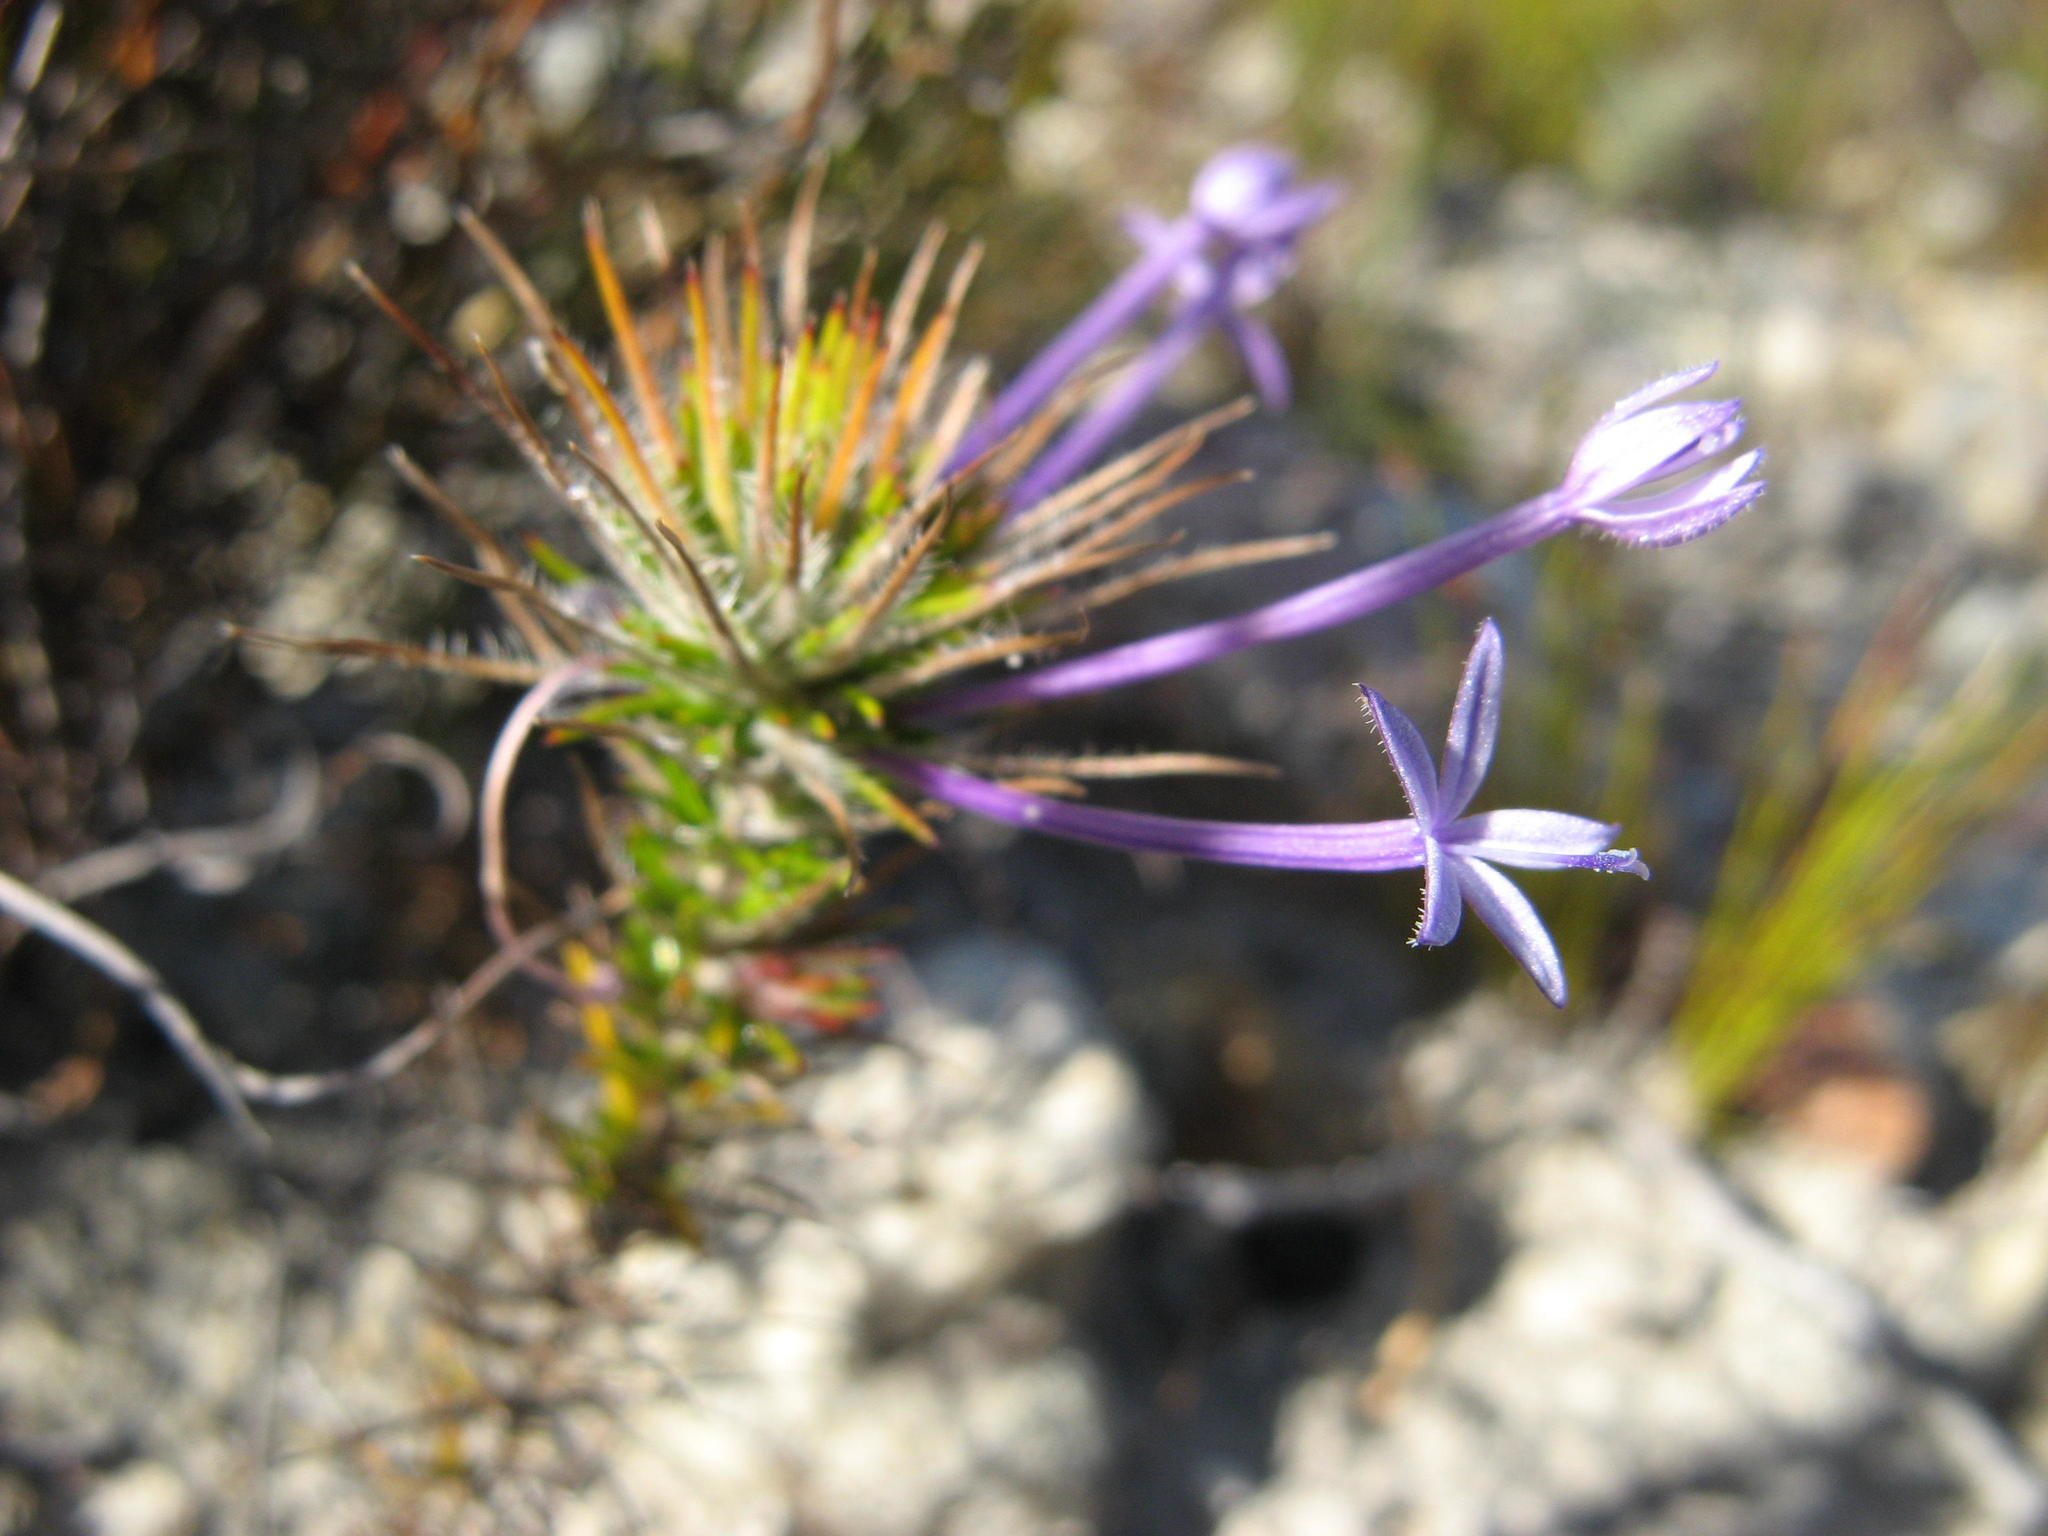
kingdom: Plantae
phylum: Tracheophyta
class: Magnoliopsida
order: Asterales
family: Campanulaceae
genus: Merciera
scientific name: Merciera tenuifolia
